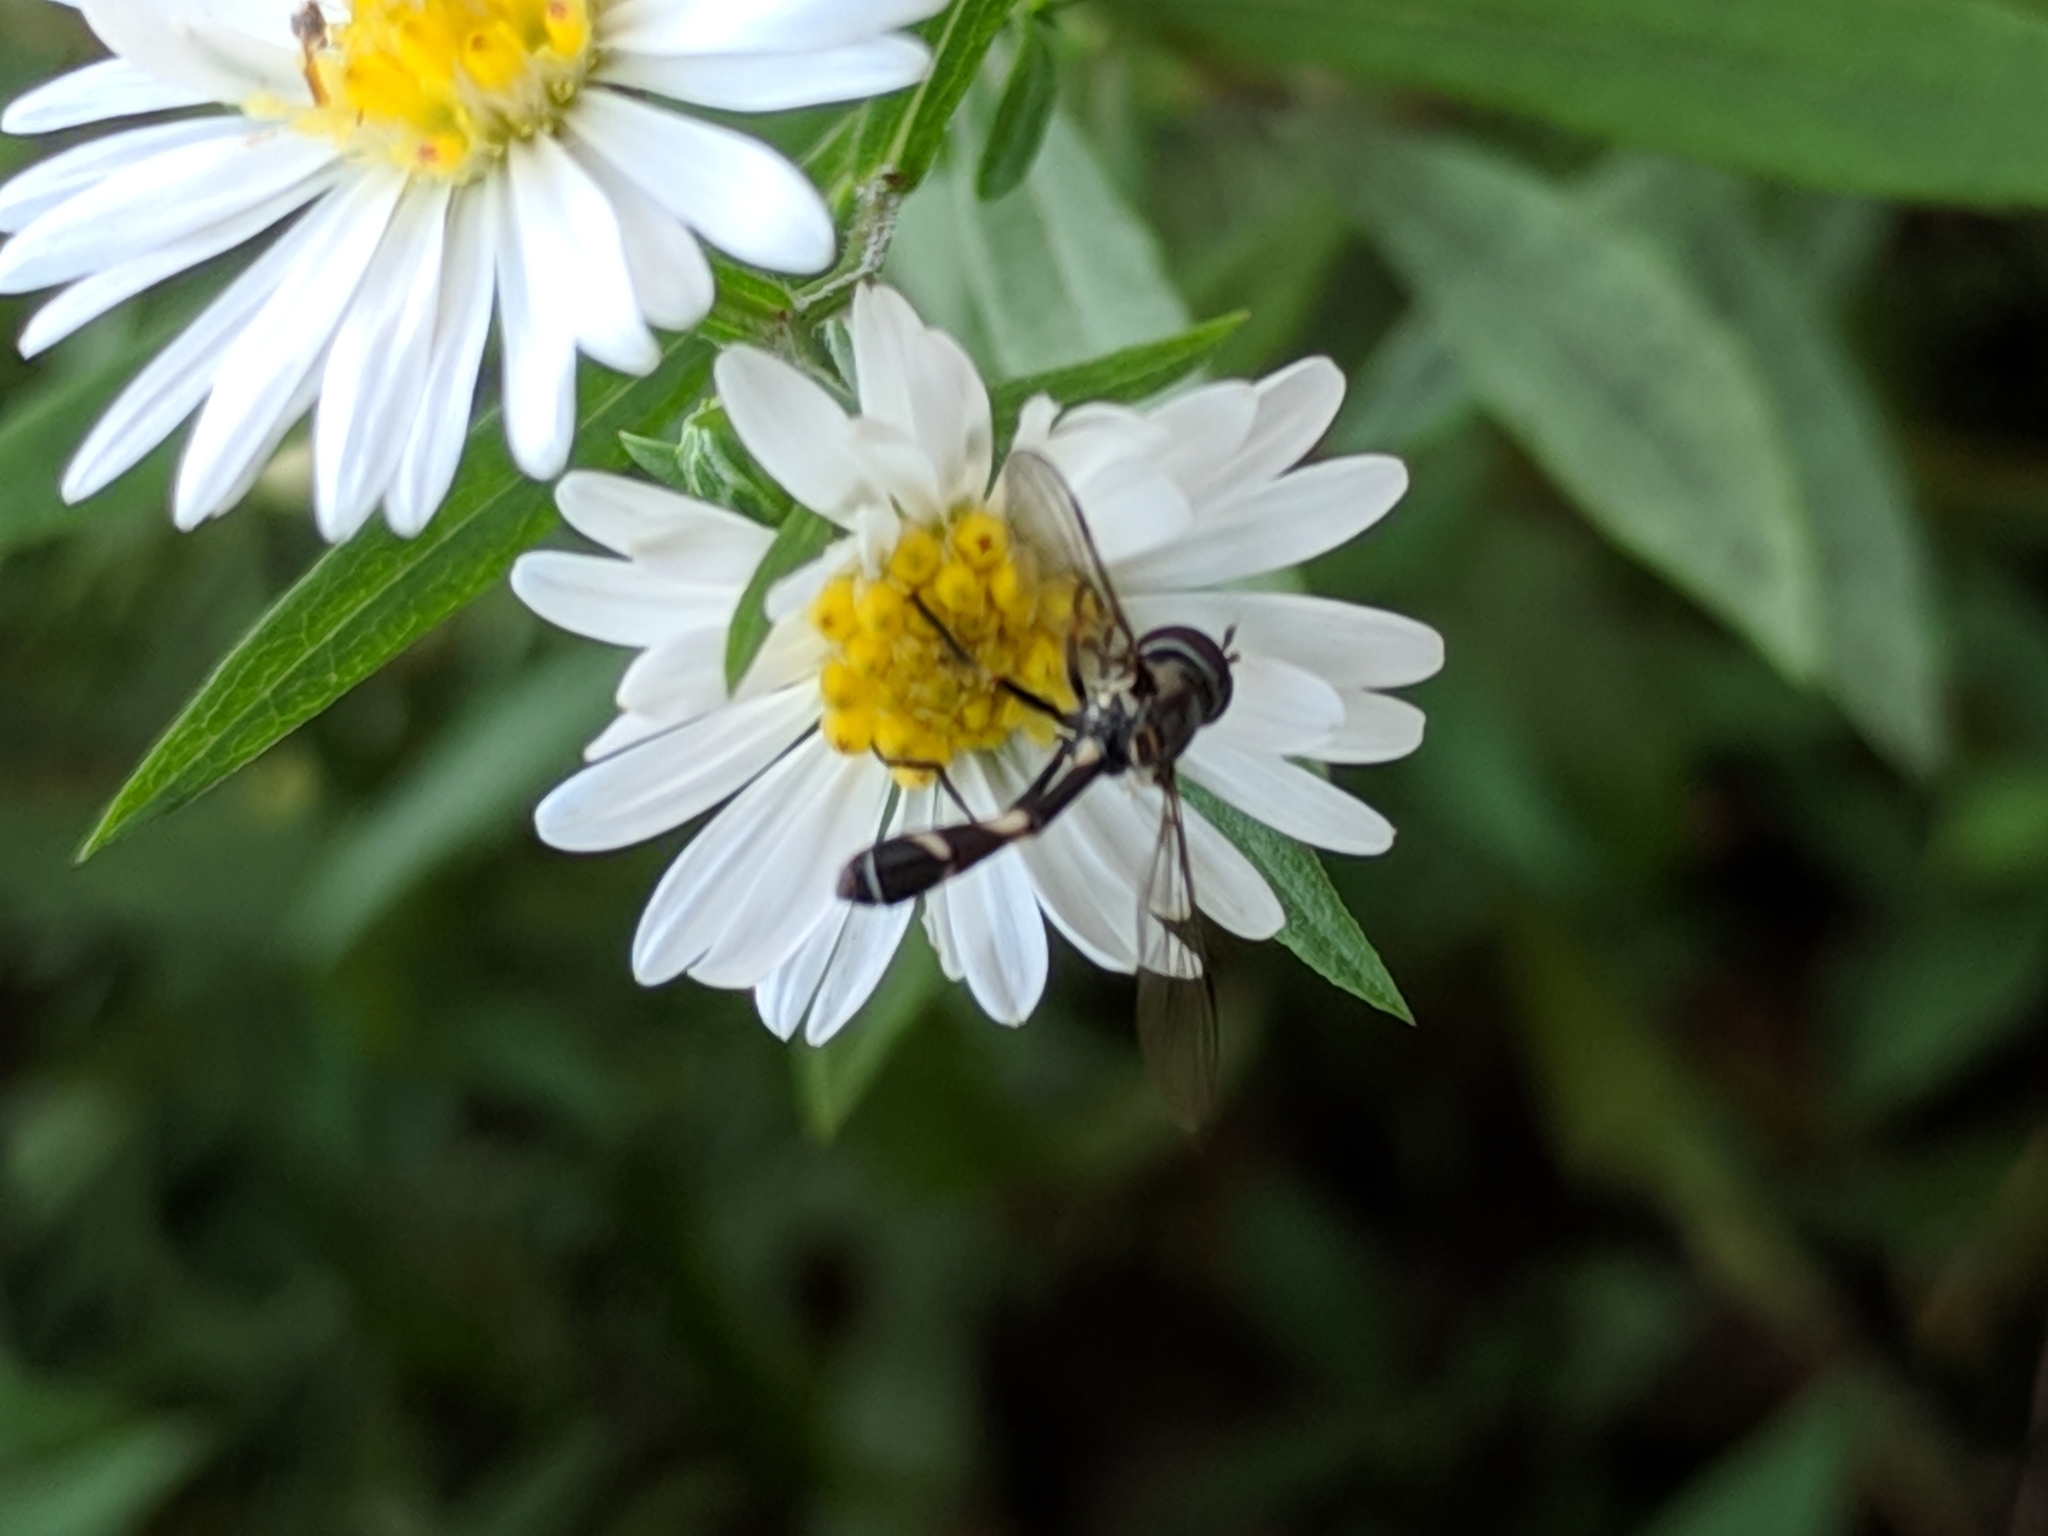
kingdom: Animalia
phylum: Arthropoda
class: Insecta
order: Diptera
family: Syrphidae
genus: Dioprosopa
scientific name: Dioprosopa clavatus
